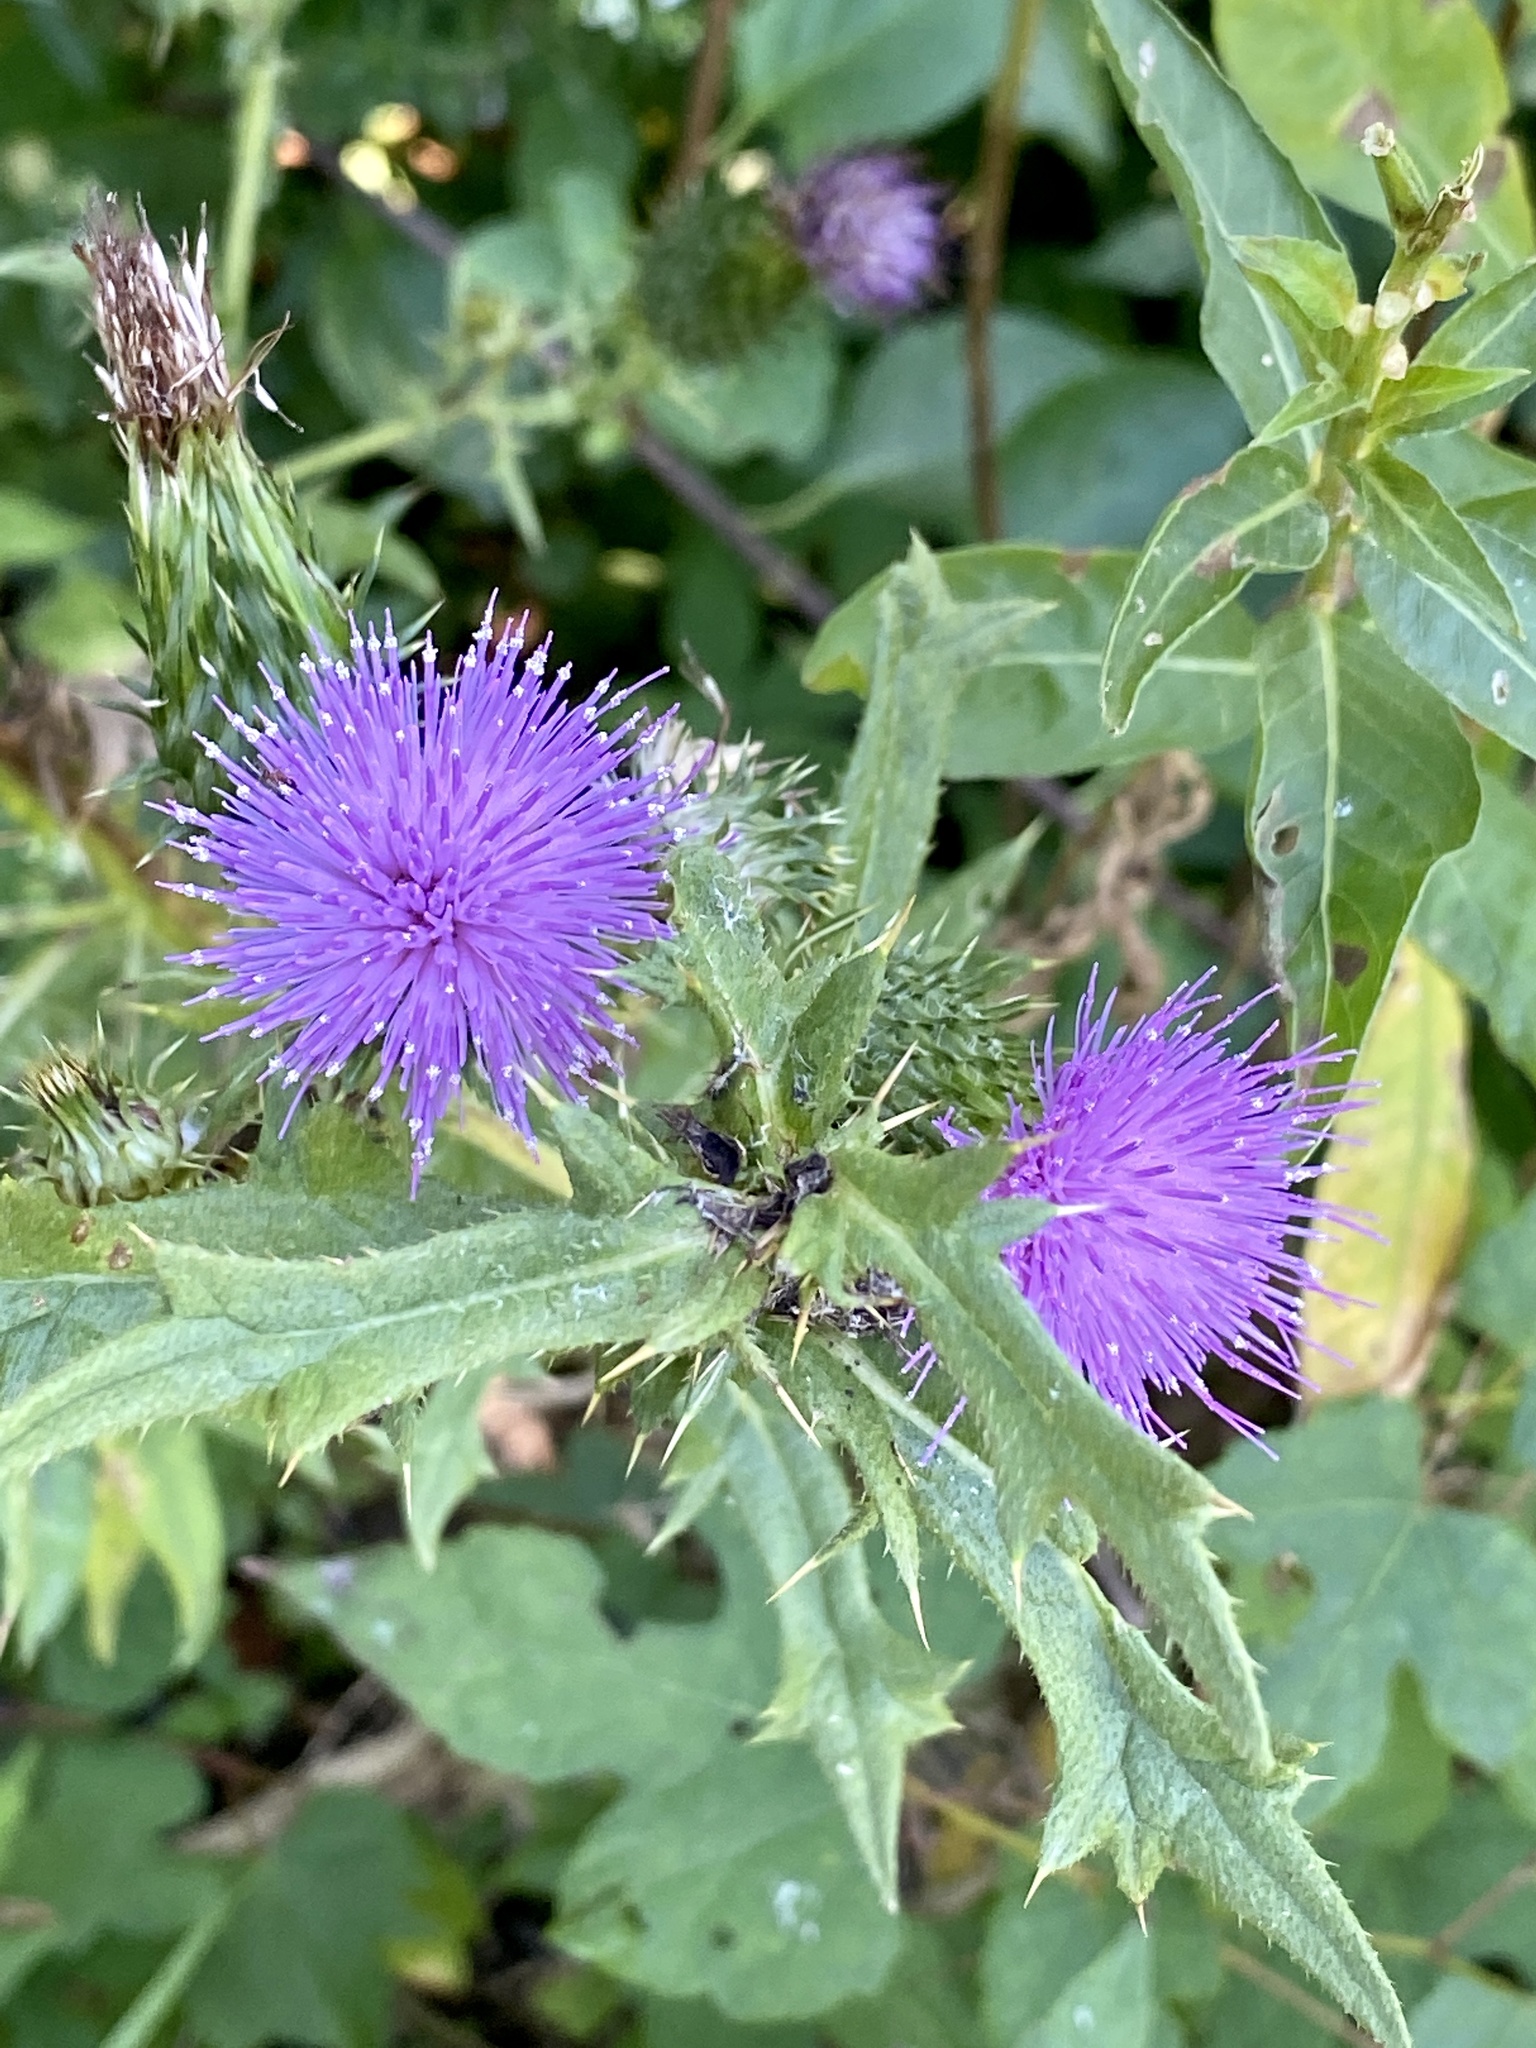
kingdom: Plantae
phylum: Tracheophyta
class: Magnoliopsida
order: Asterales
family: Asteraceae
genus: Cirsium
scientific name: Cirsium vulgare
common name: Bull thistle
